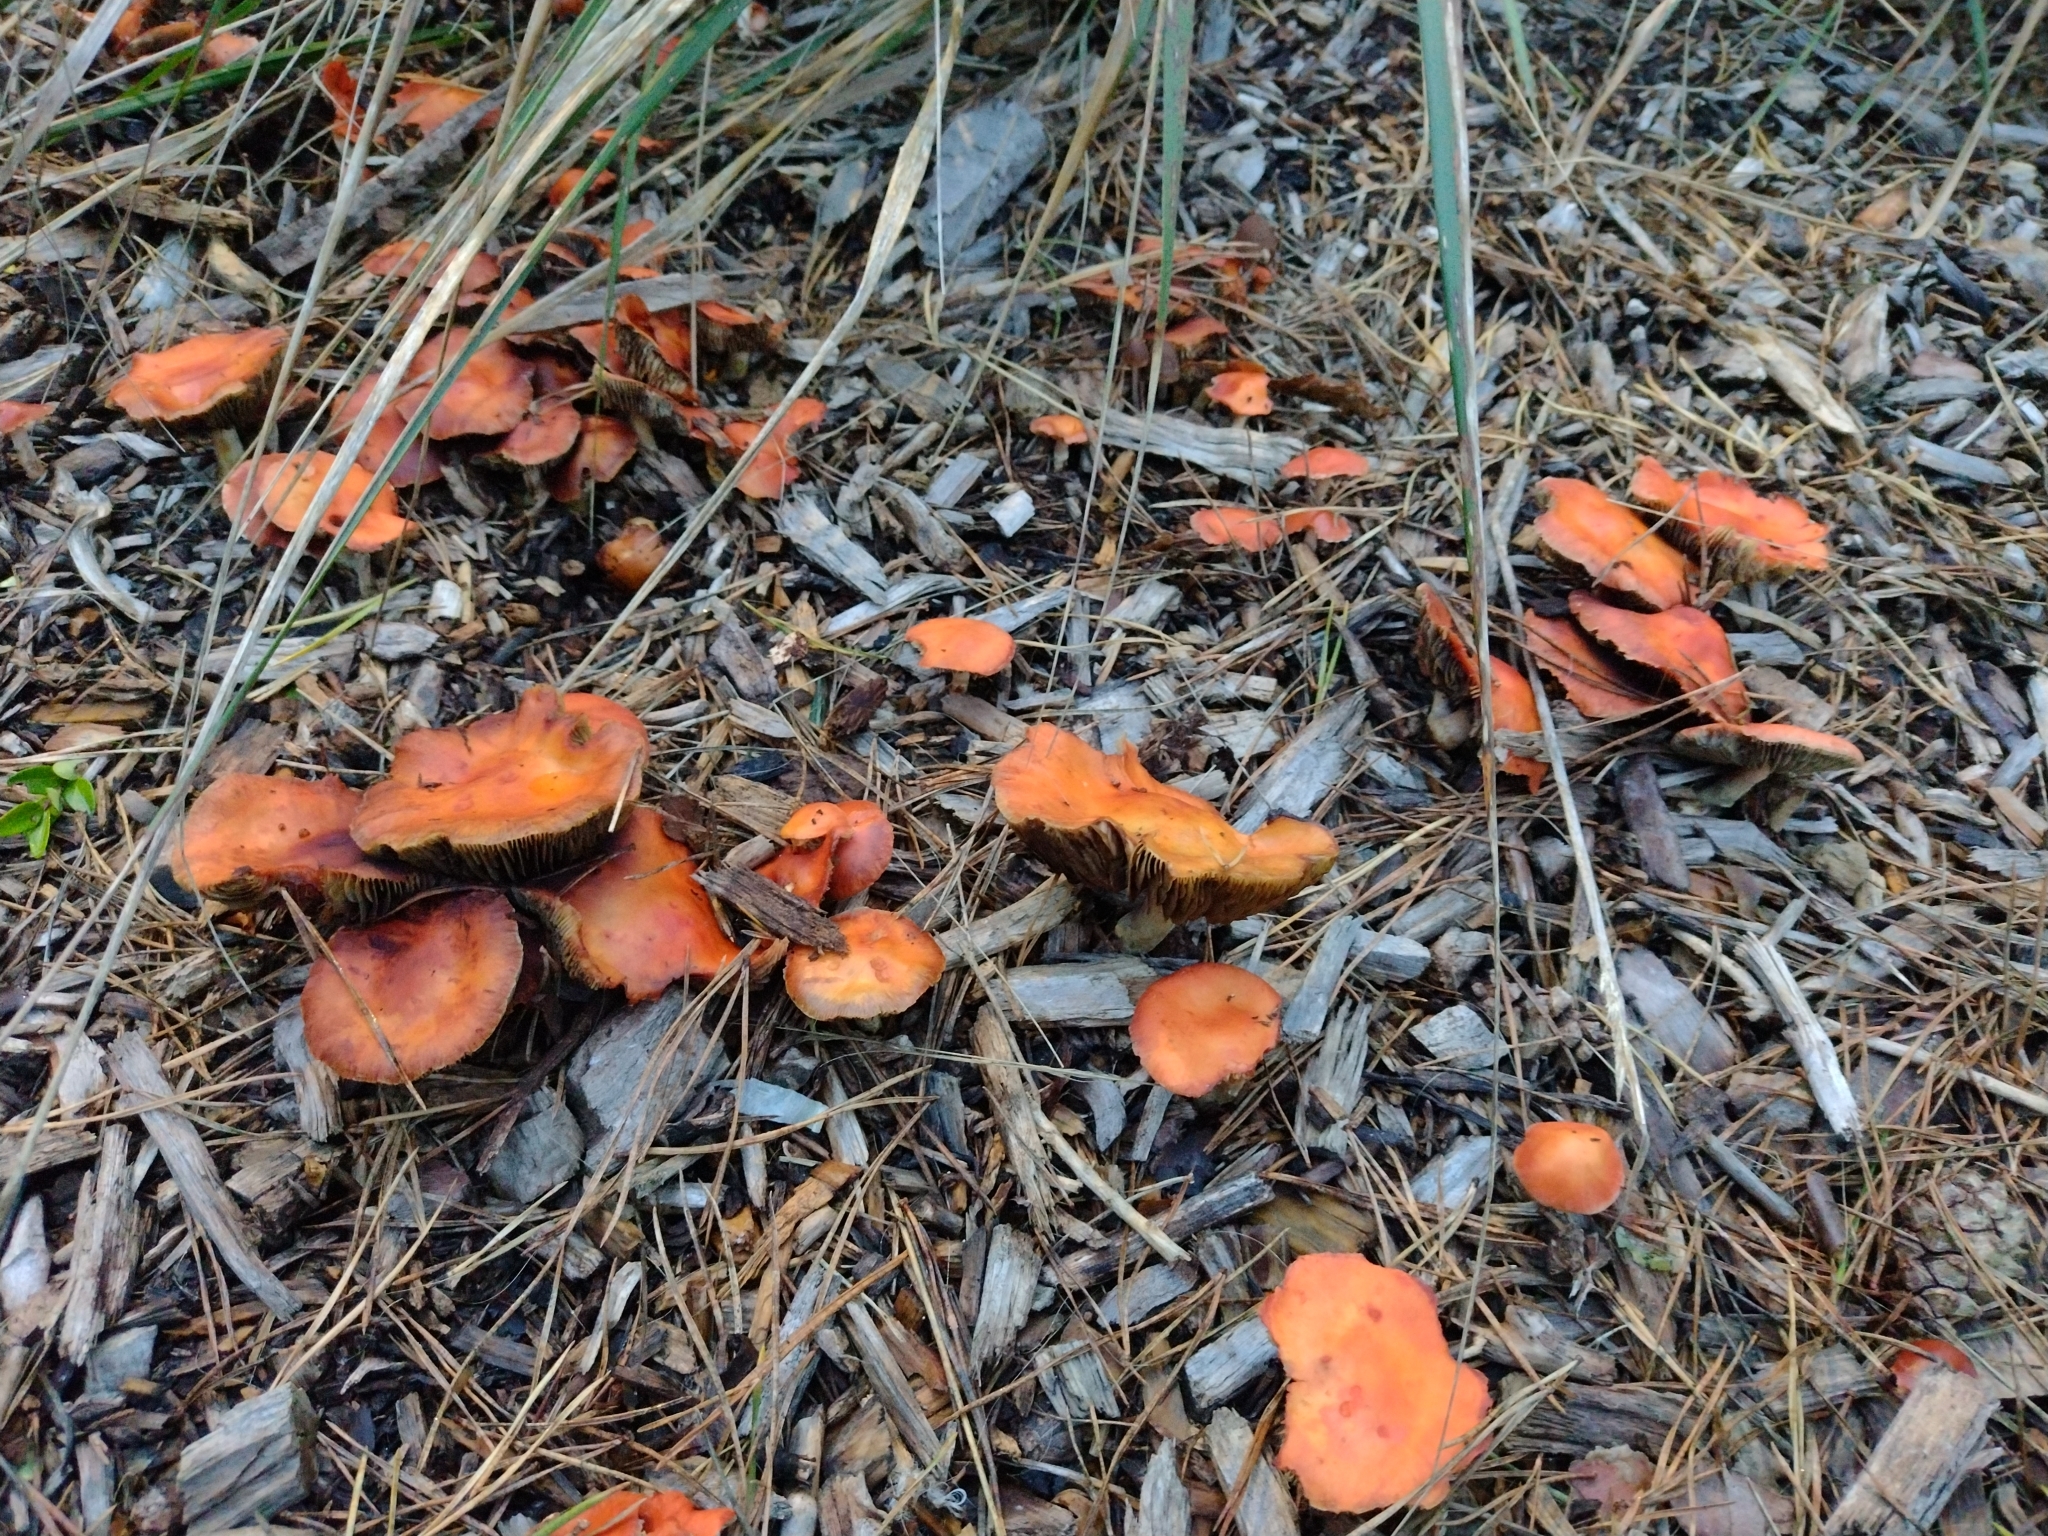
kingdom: Fungi
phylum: Basidiomycota
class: Agaricomycetes
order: Agaricales
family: Strophariaceae
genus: Leratiomyces
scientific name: Leratiomyces ceres
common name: Redlead roundhead
